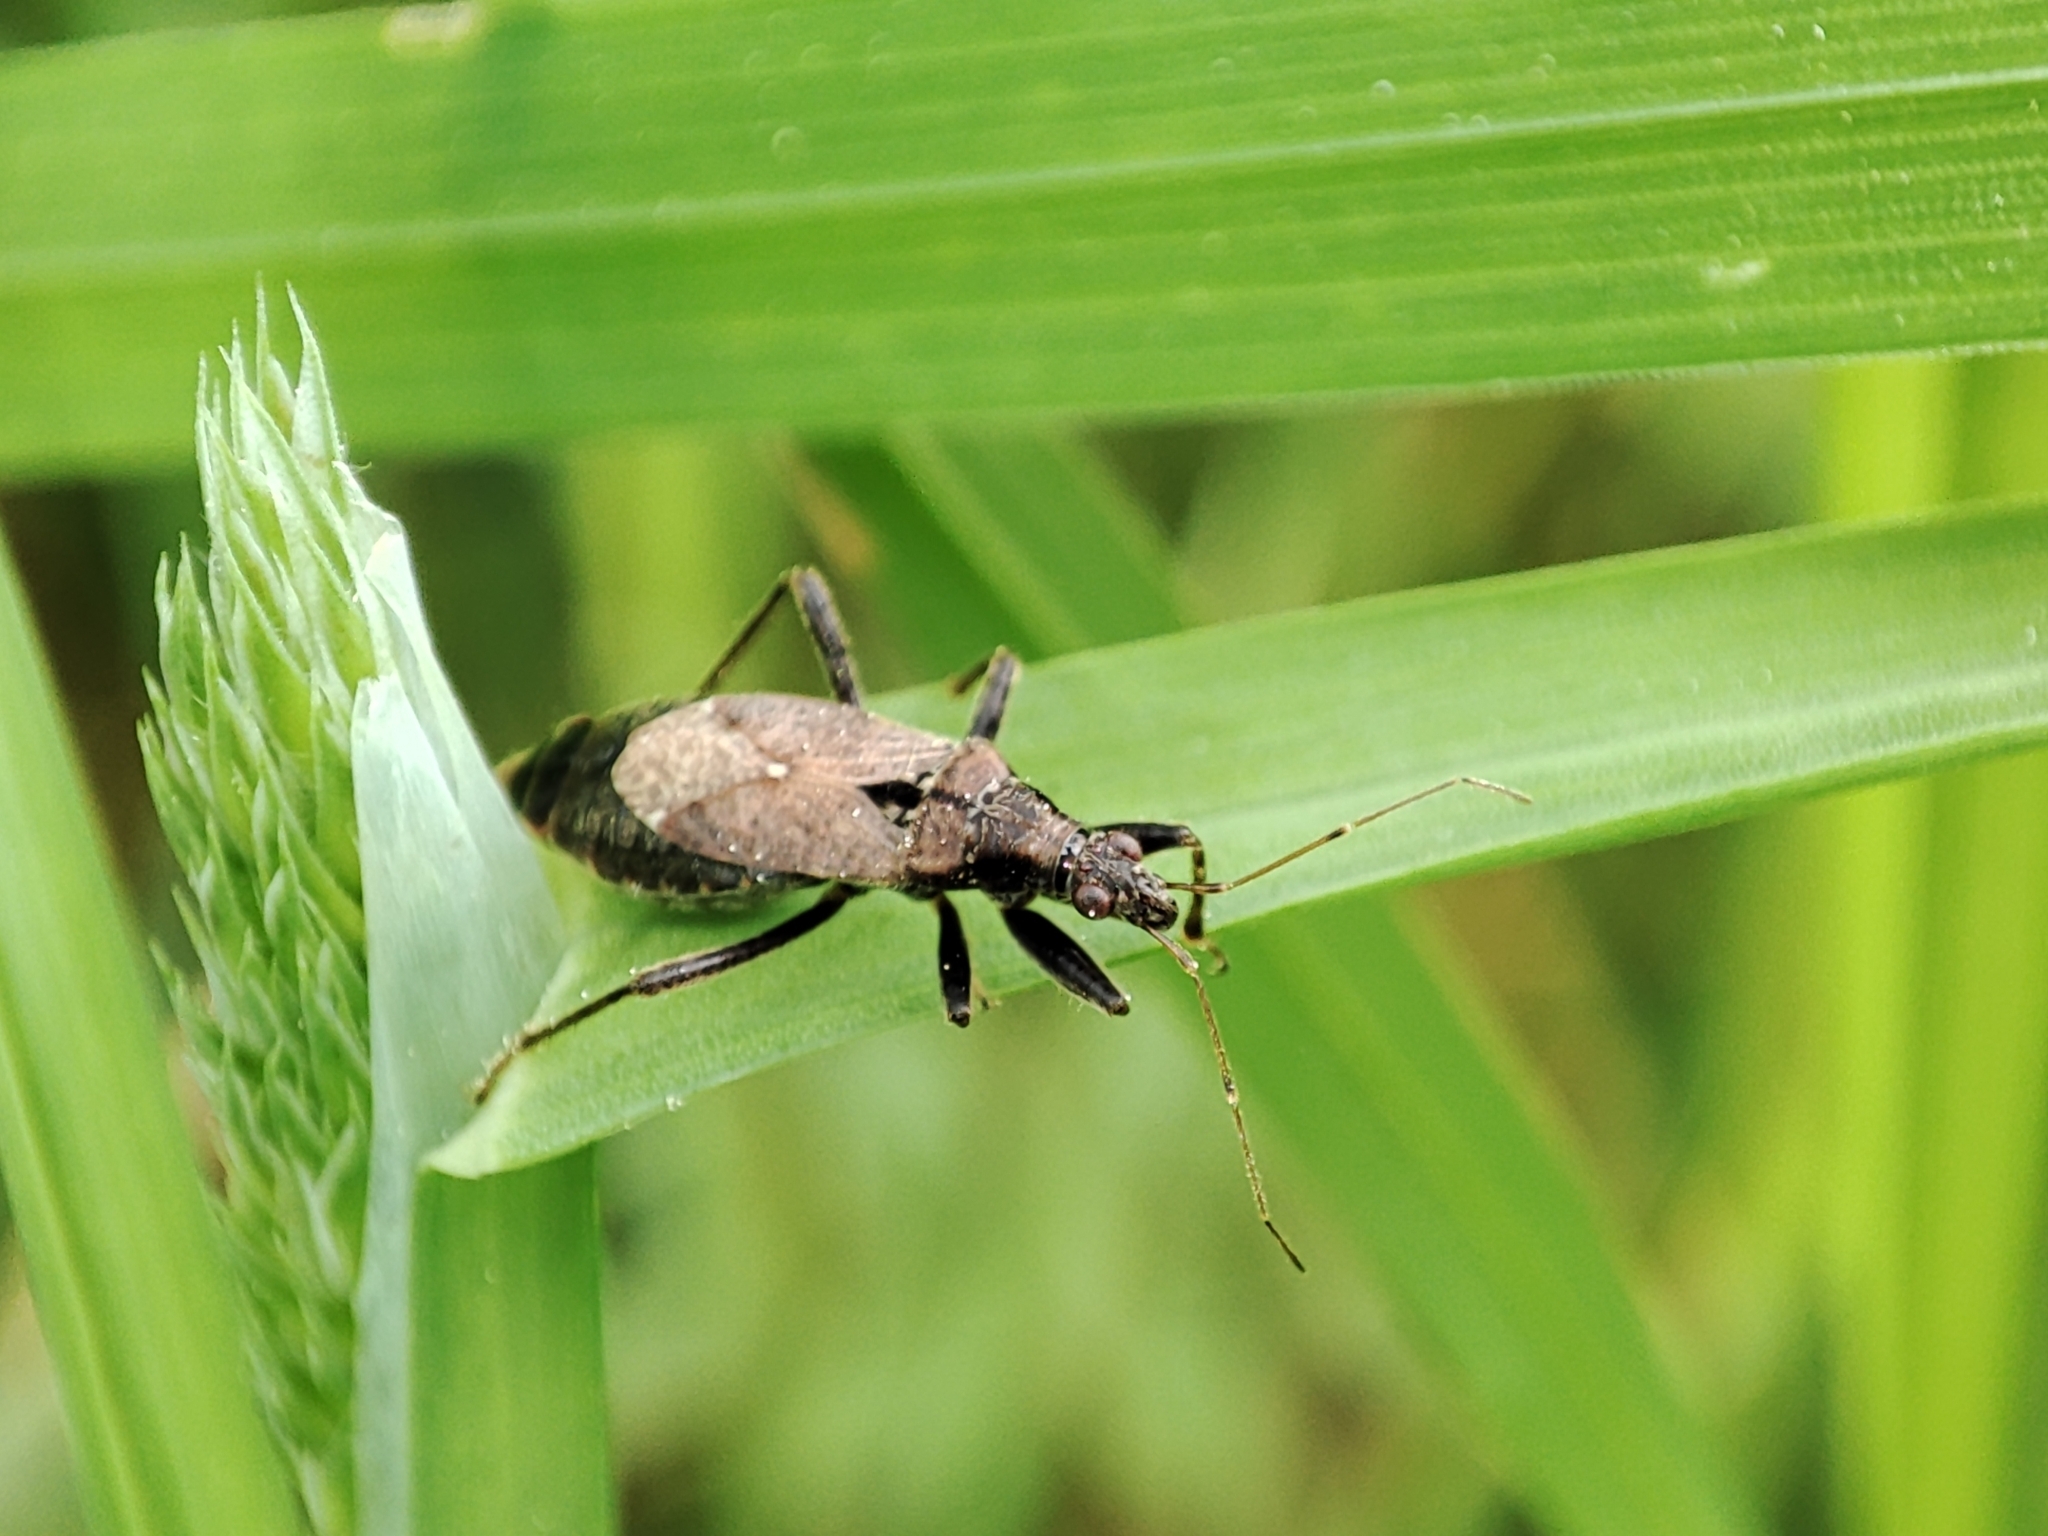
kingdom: Animalia
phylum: Arthropoda
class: Insecta
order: Hemiptera
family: Nabidae
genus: Himacerus
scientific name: Himacerus mirmicoides
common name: Ant damsel bug
